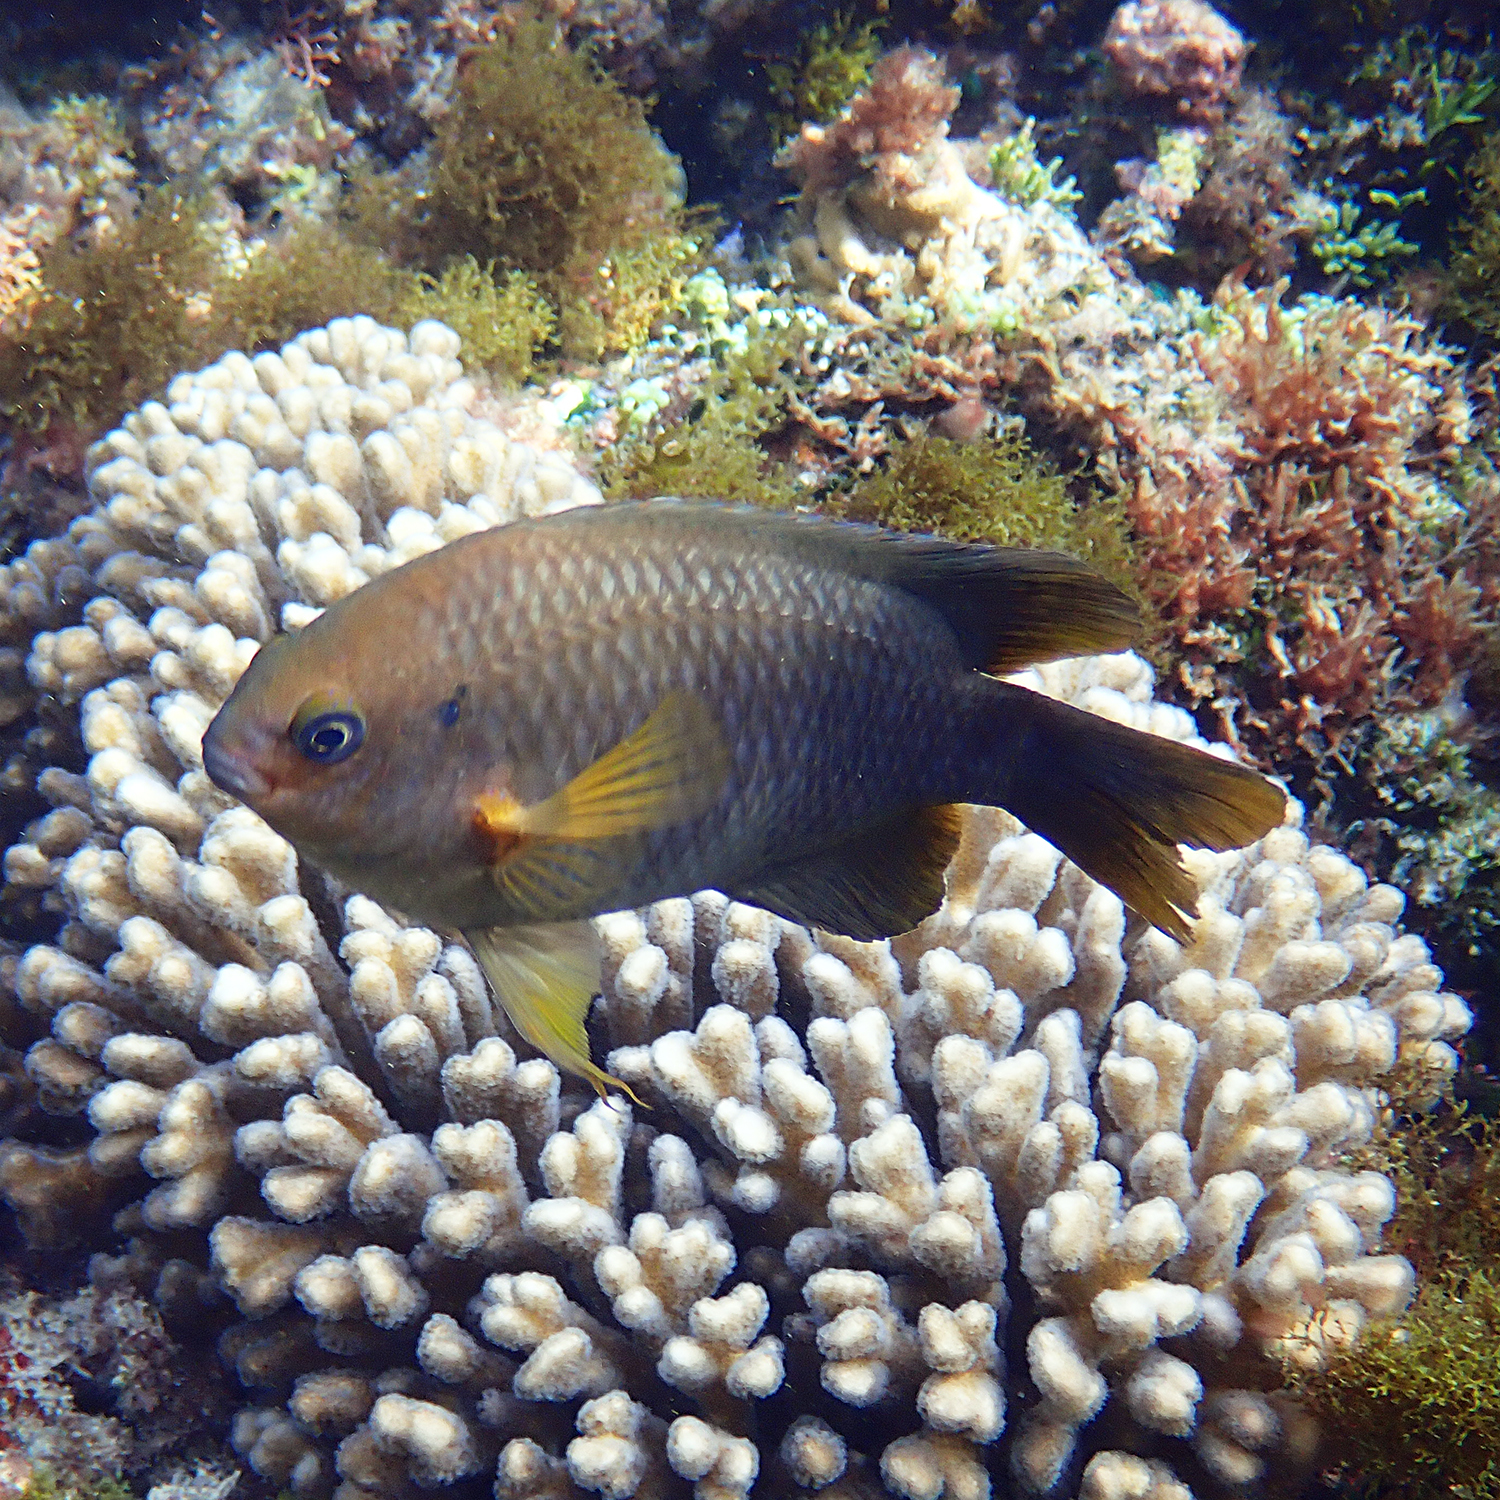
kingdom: Animalia
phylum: Chordata
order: Perciformes
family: Pomacentridae
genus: Neoglyphidodon
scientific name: Neoglyphidodon polyacanthus
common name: Multi-spined damsel
